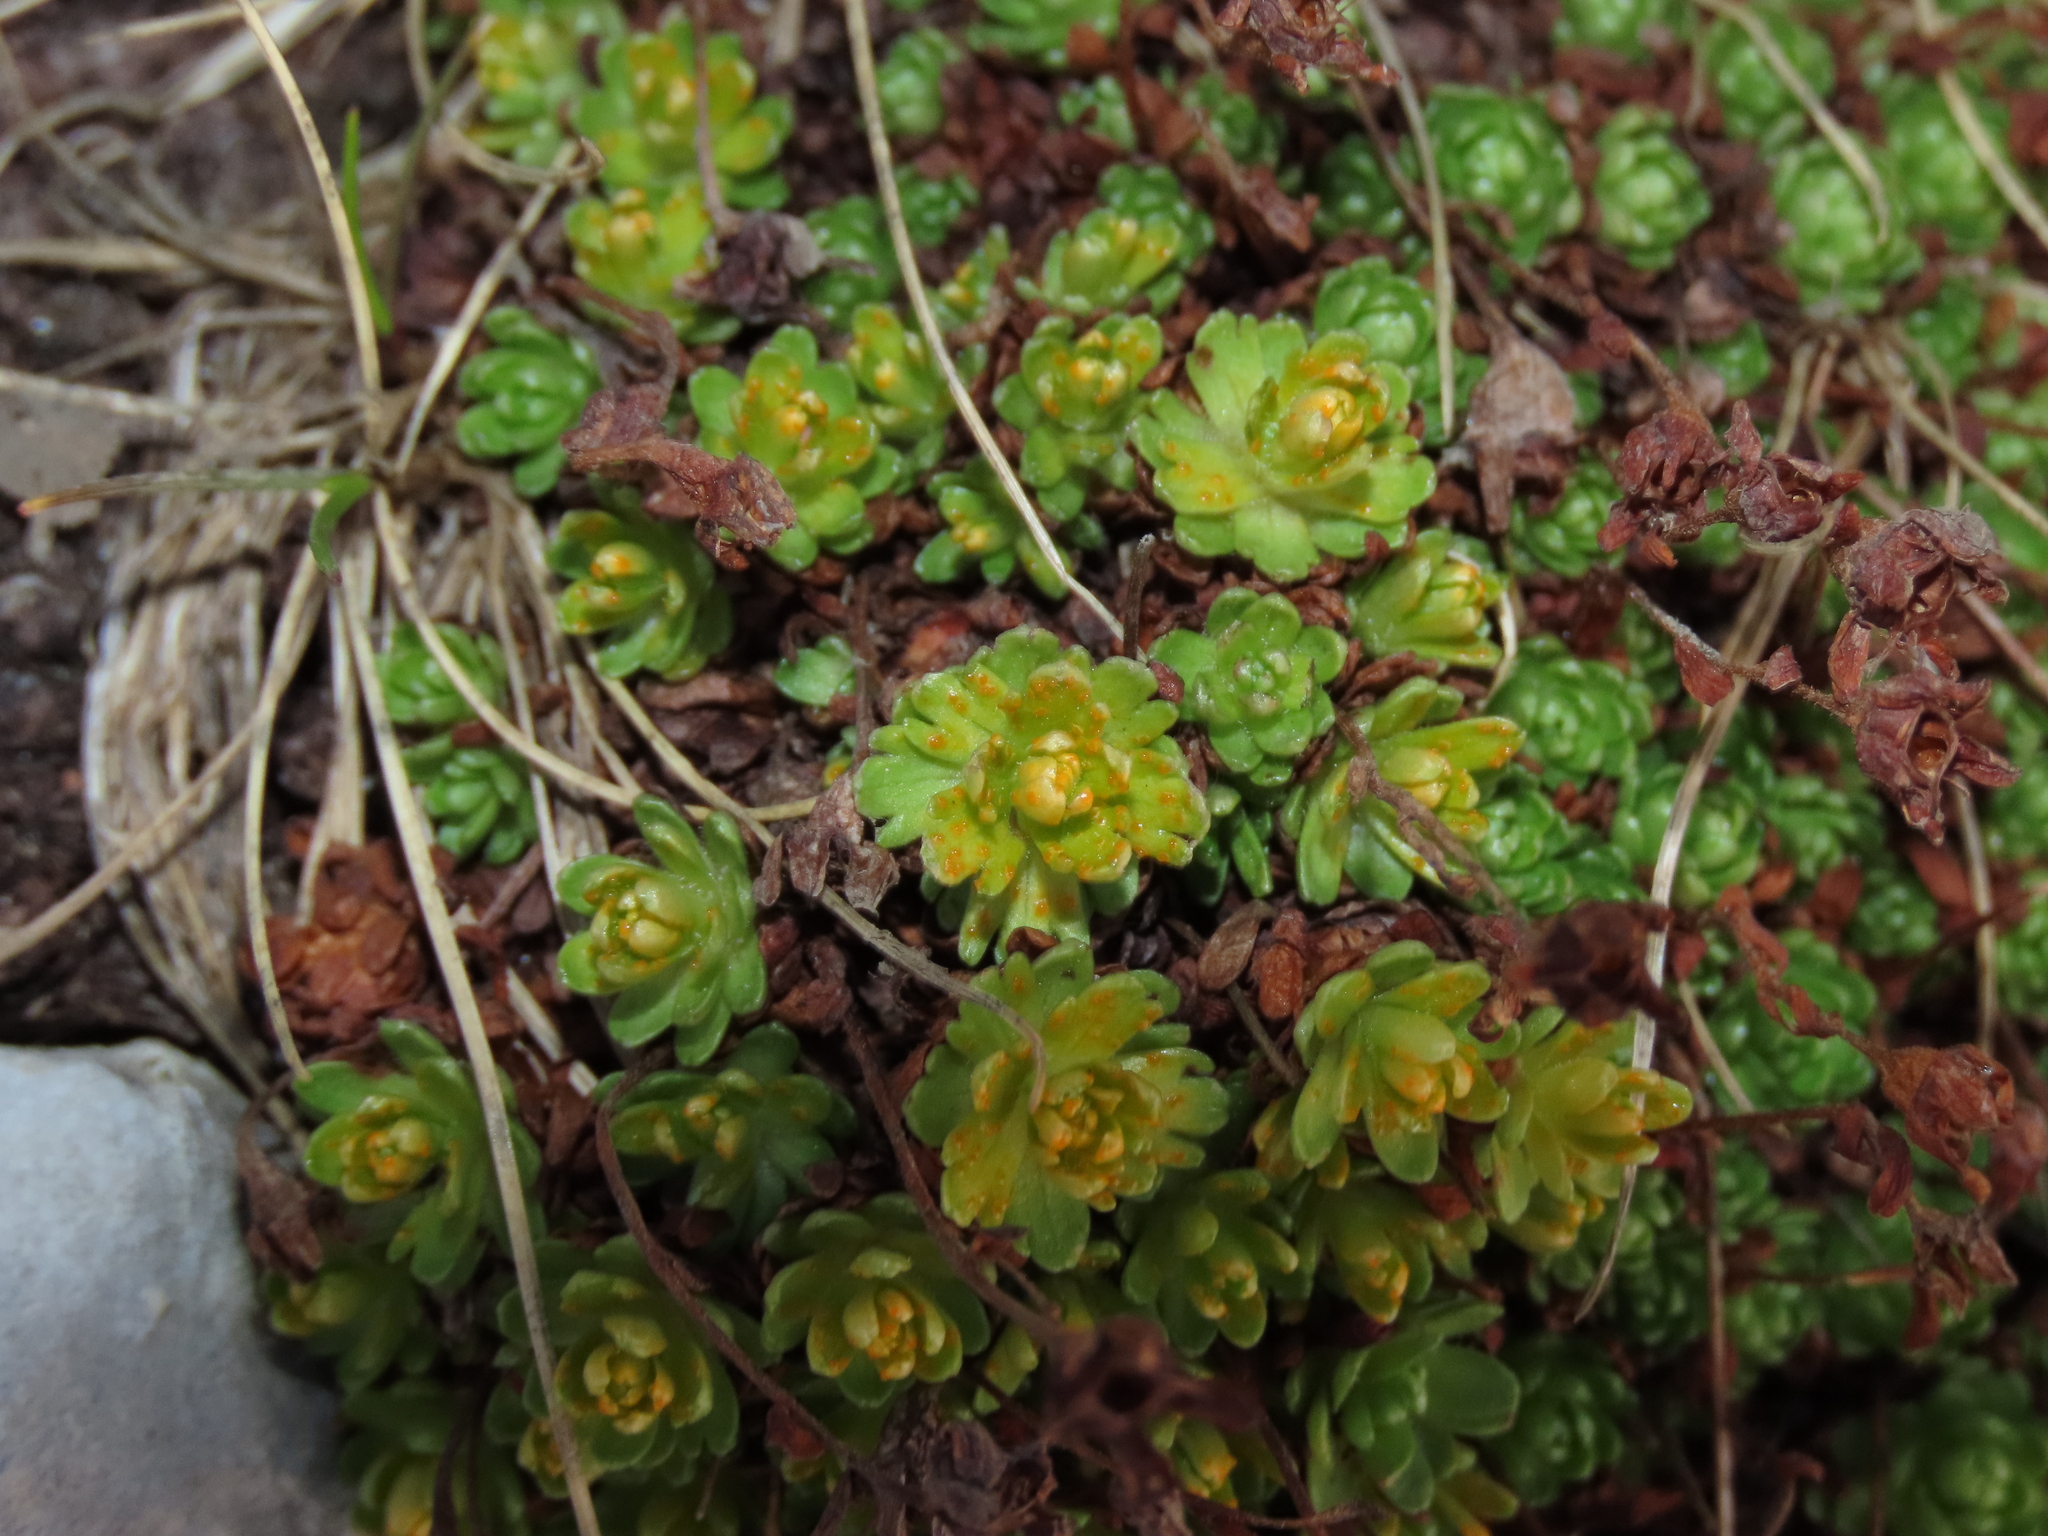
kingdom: Plantae
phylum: Tracheophyta
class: Magnoliopsida
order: Saxifragales
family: Saxifragaceae
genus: Saxifraga
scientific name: Saxifraga exarata
